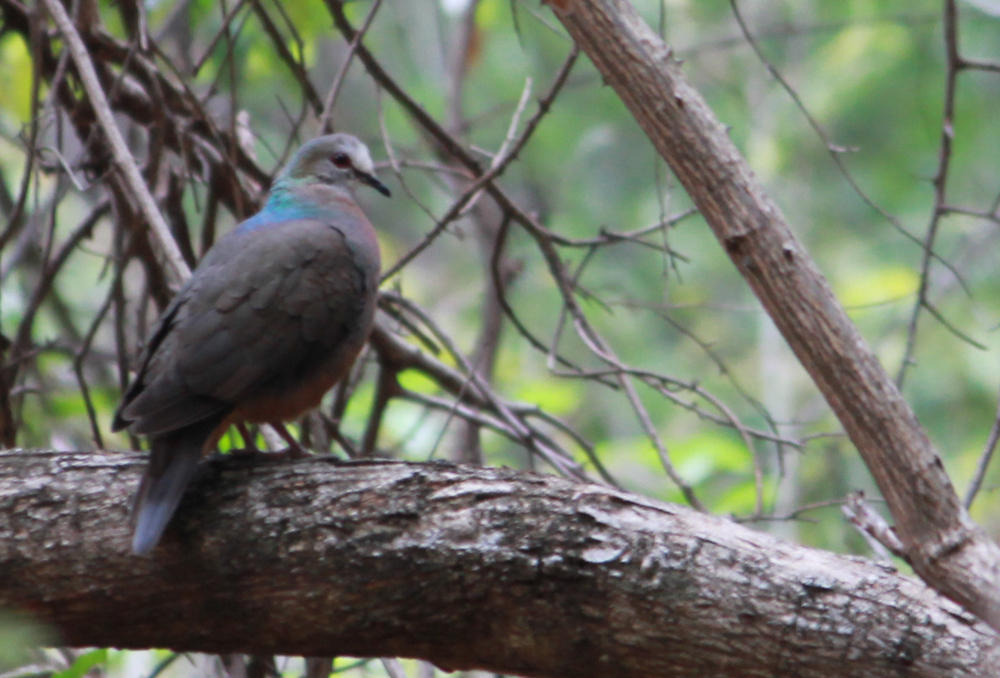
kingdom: Animalia
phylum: Chordata
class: Aves
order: Columbiformes
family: Columbidae
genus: Columba
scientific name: Columba larvata
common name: Lemon dove
